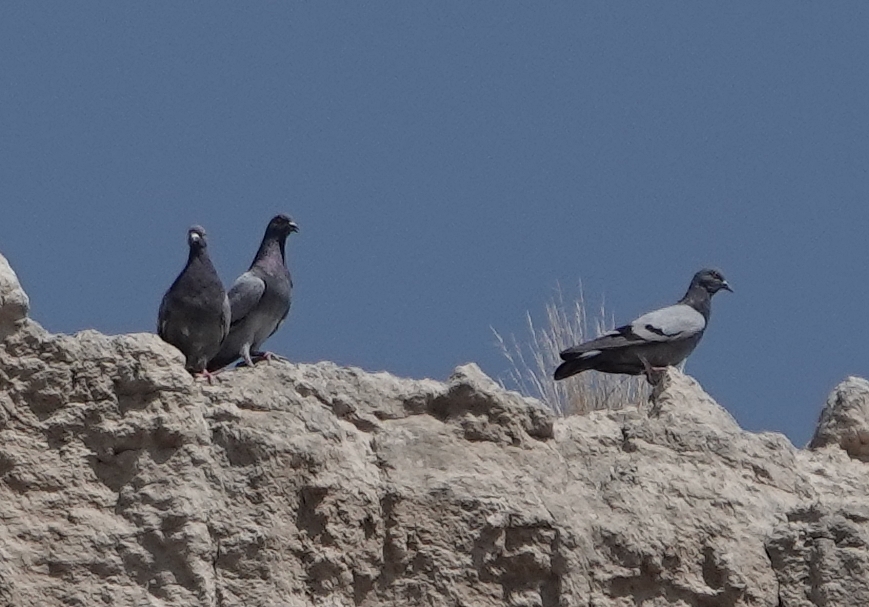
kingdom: Animalia
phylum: Chordata
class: Aves
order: Columbiformes
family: Columbidae
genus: Columba
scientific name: Columba livia
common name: Rock pigeon
